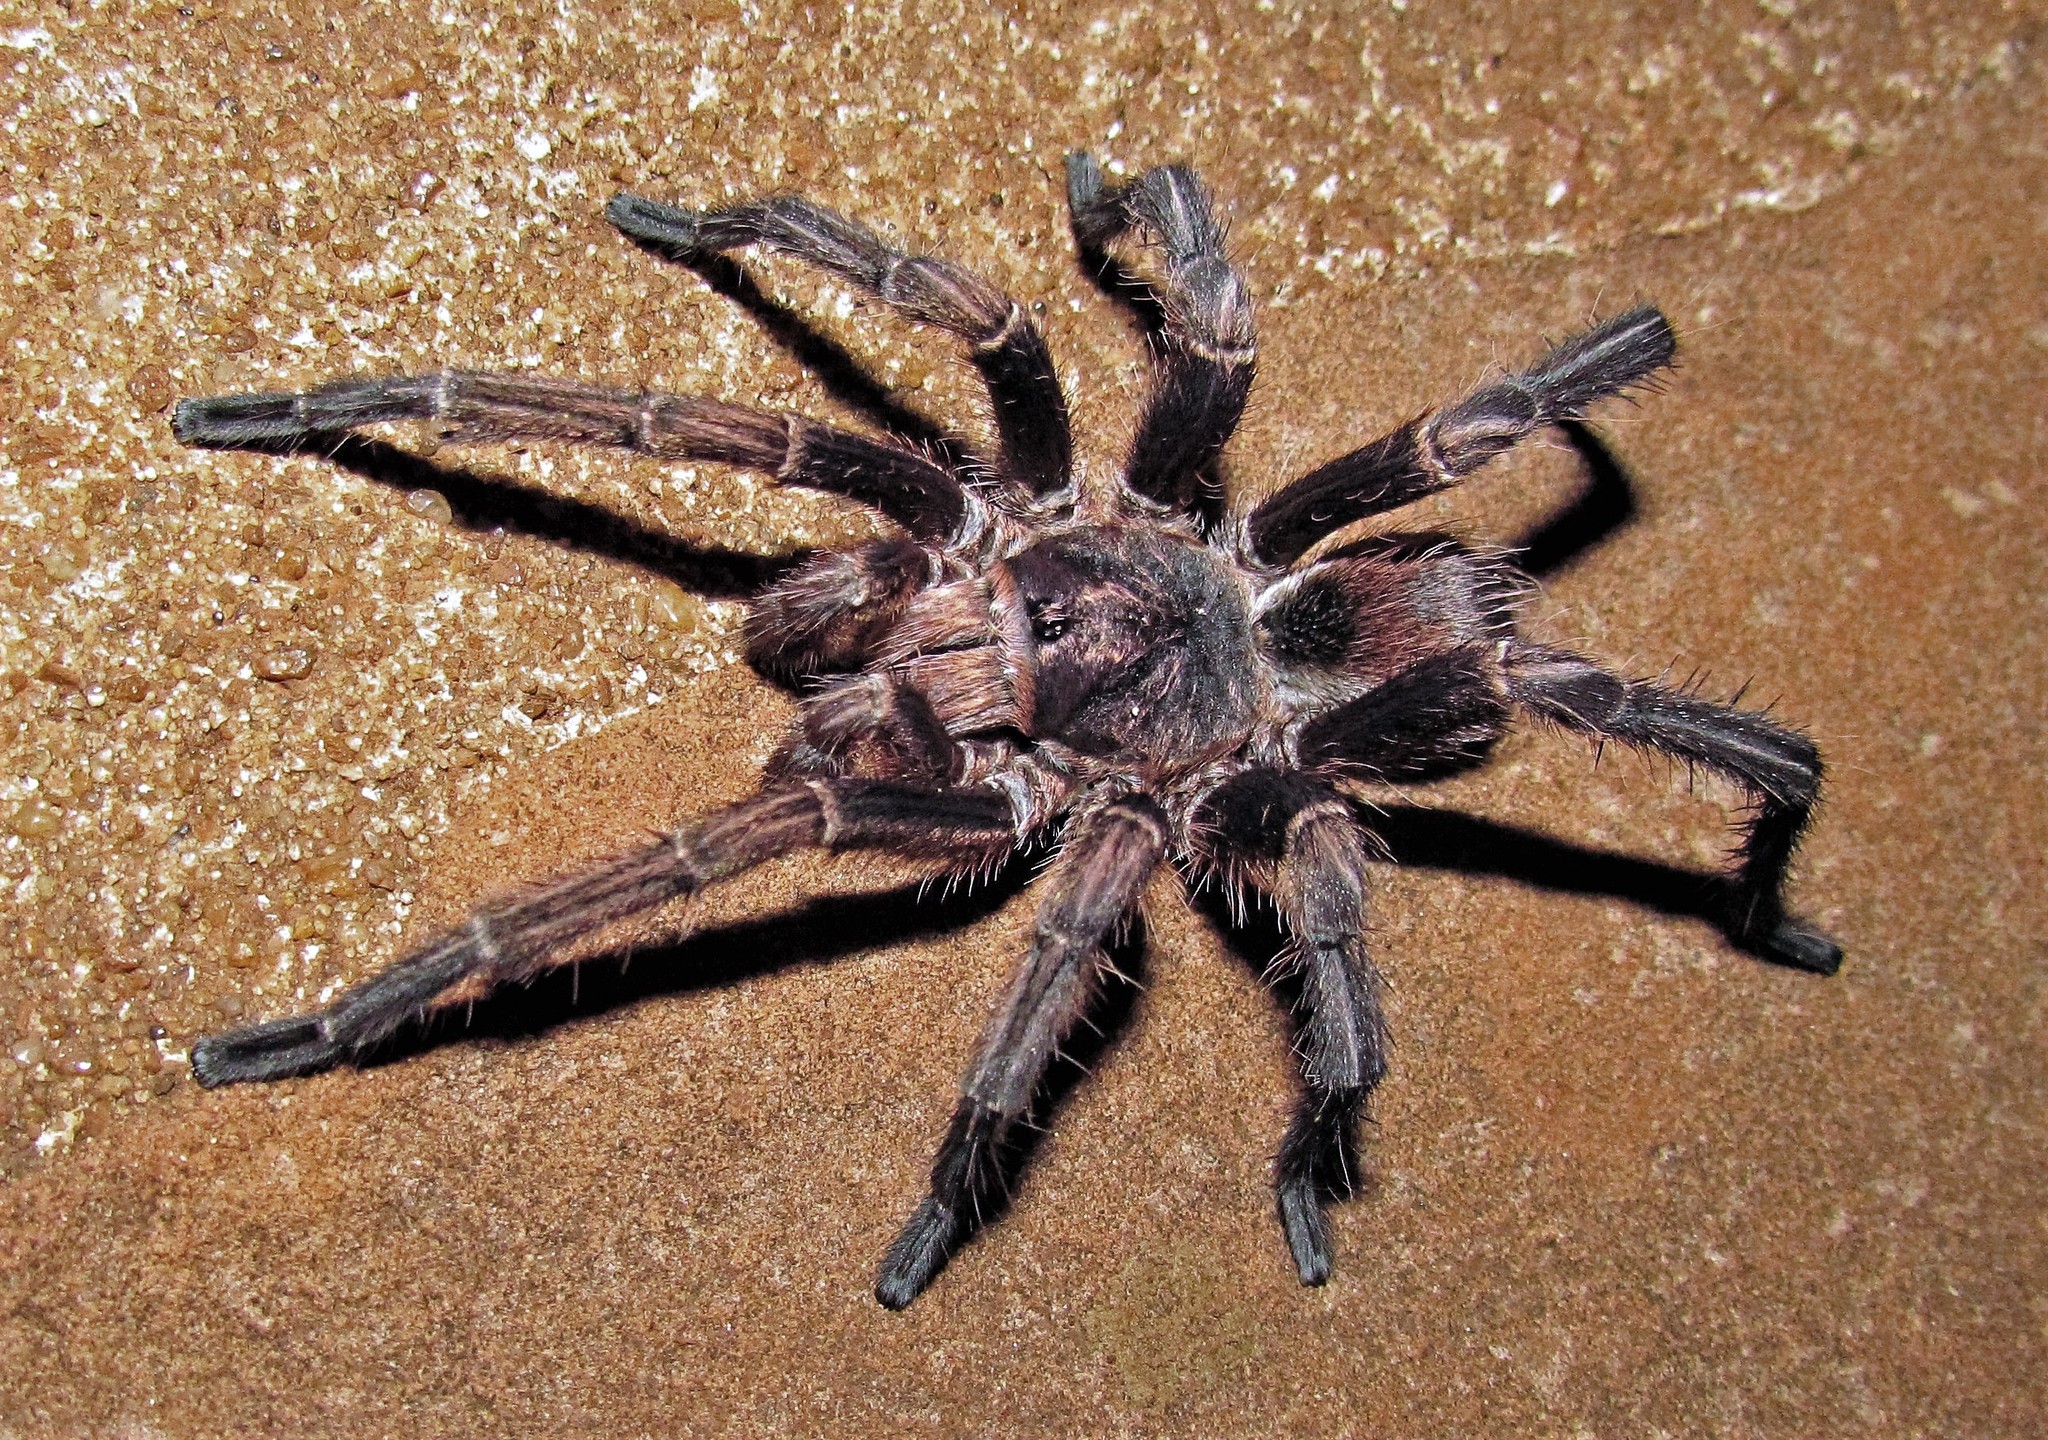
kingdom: Animalia
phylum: Arthropoda
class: Arachnida
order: Araneae
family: Theraphosidae
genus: Acanthoscurria
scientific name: Acanthoscurria cordubensis
